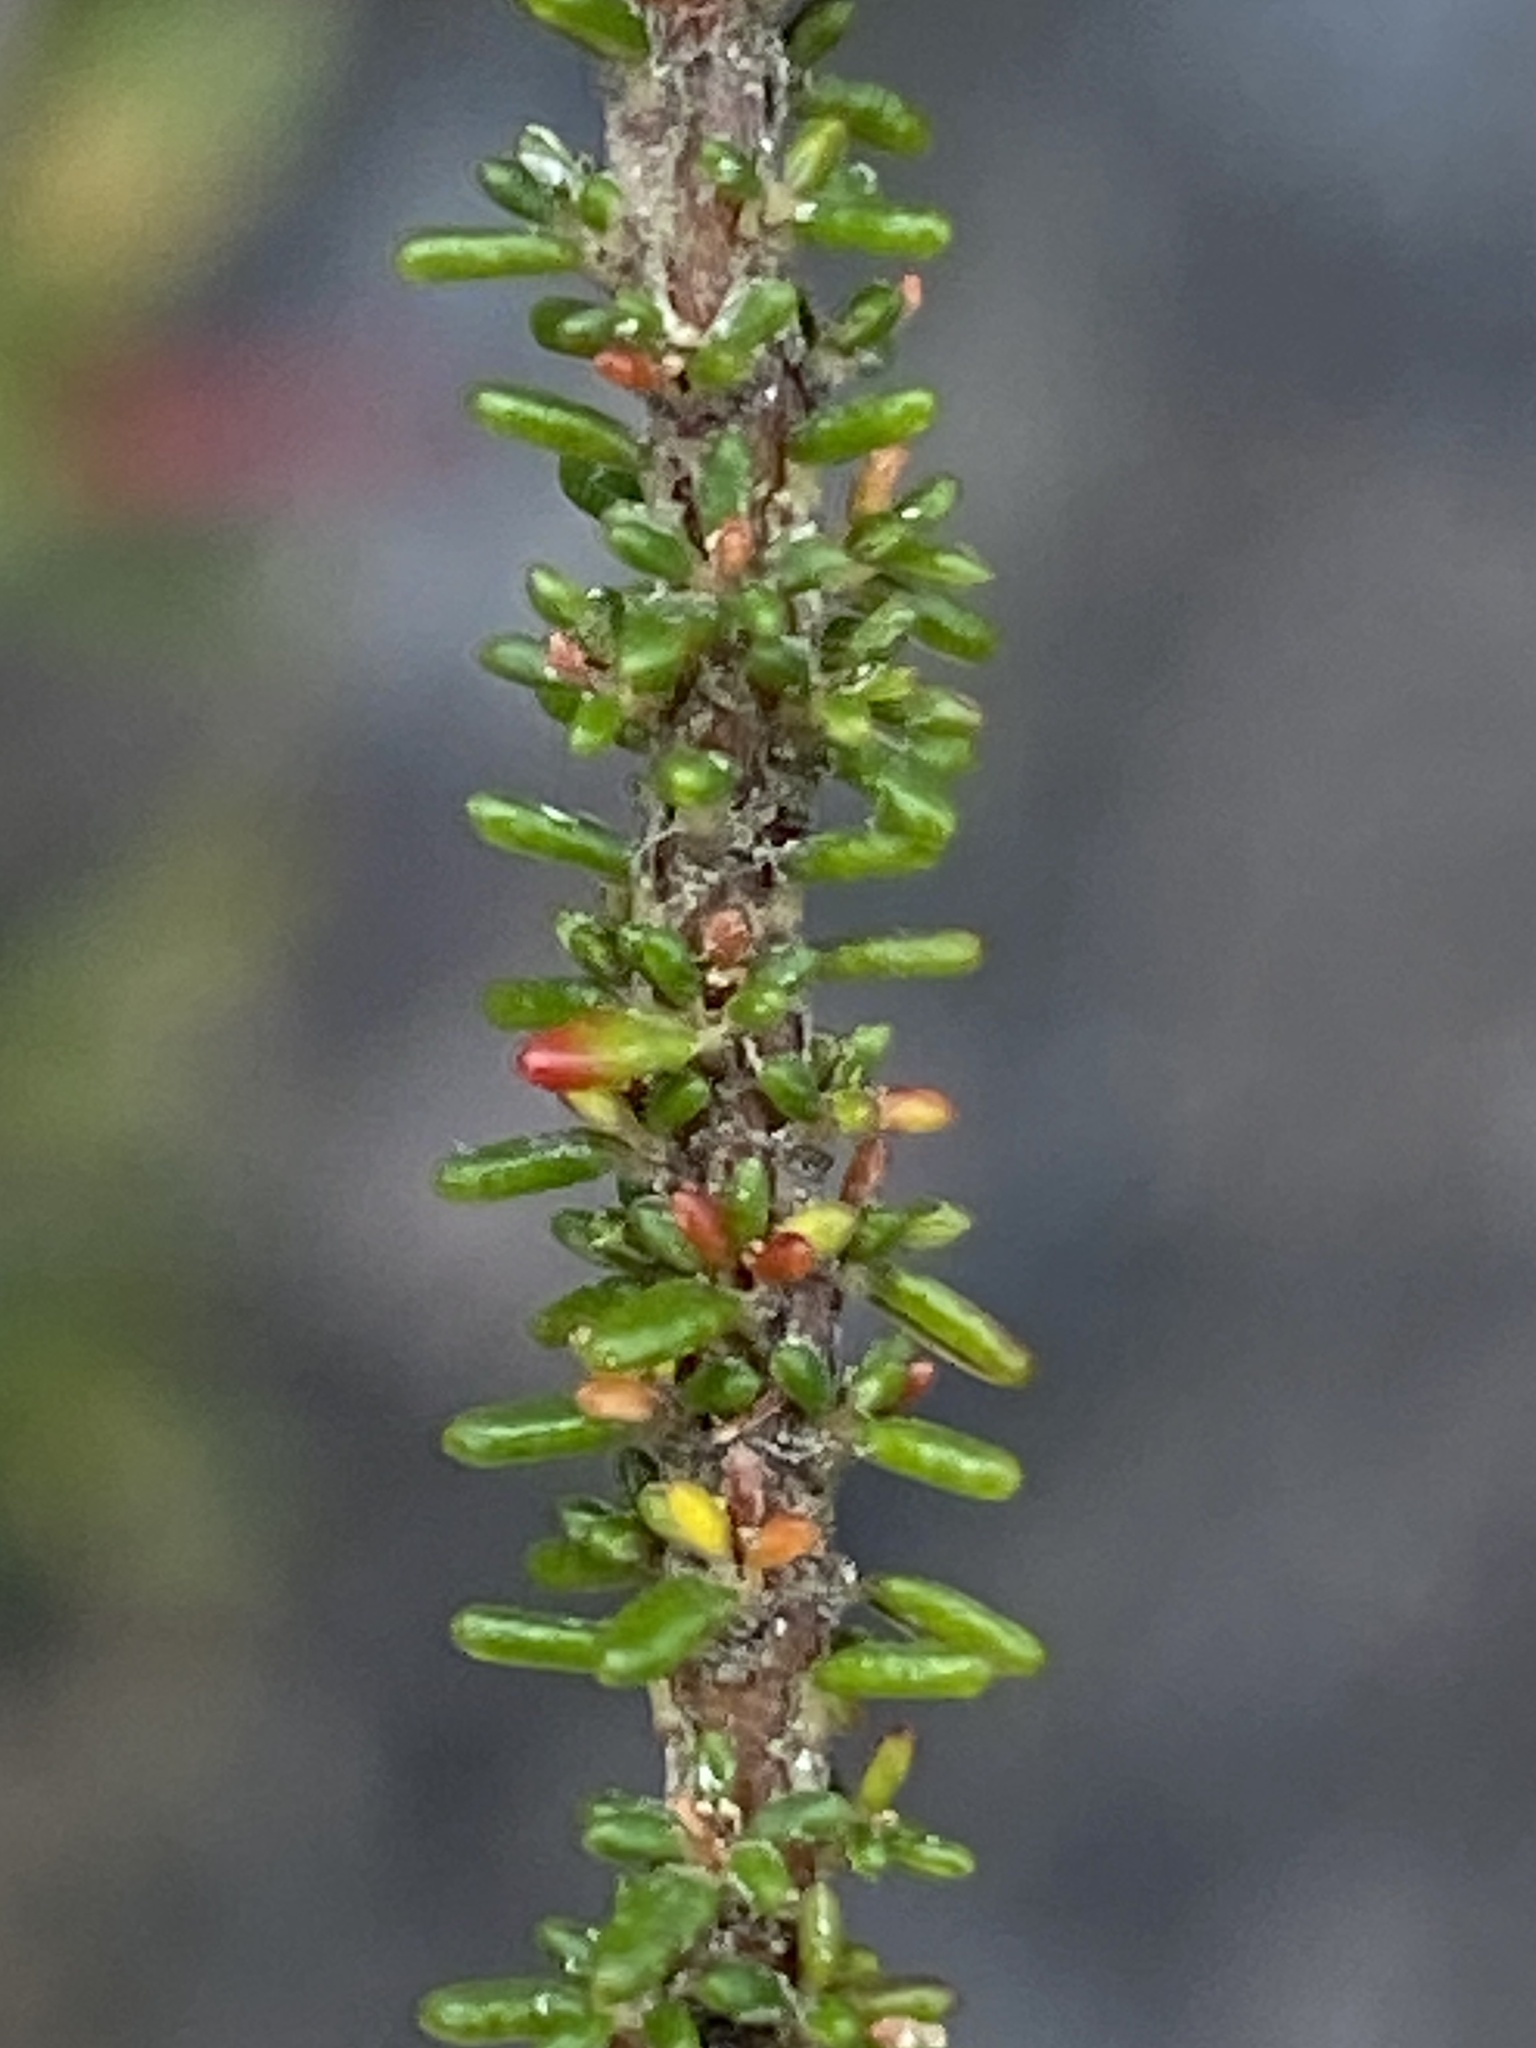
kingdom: Plantae
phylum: Tracheophyta
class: Magnoliopsida
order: Ericales
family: Ericaceae
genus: Erica
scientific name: Erica deflexa
